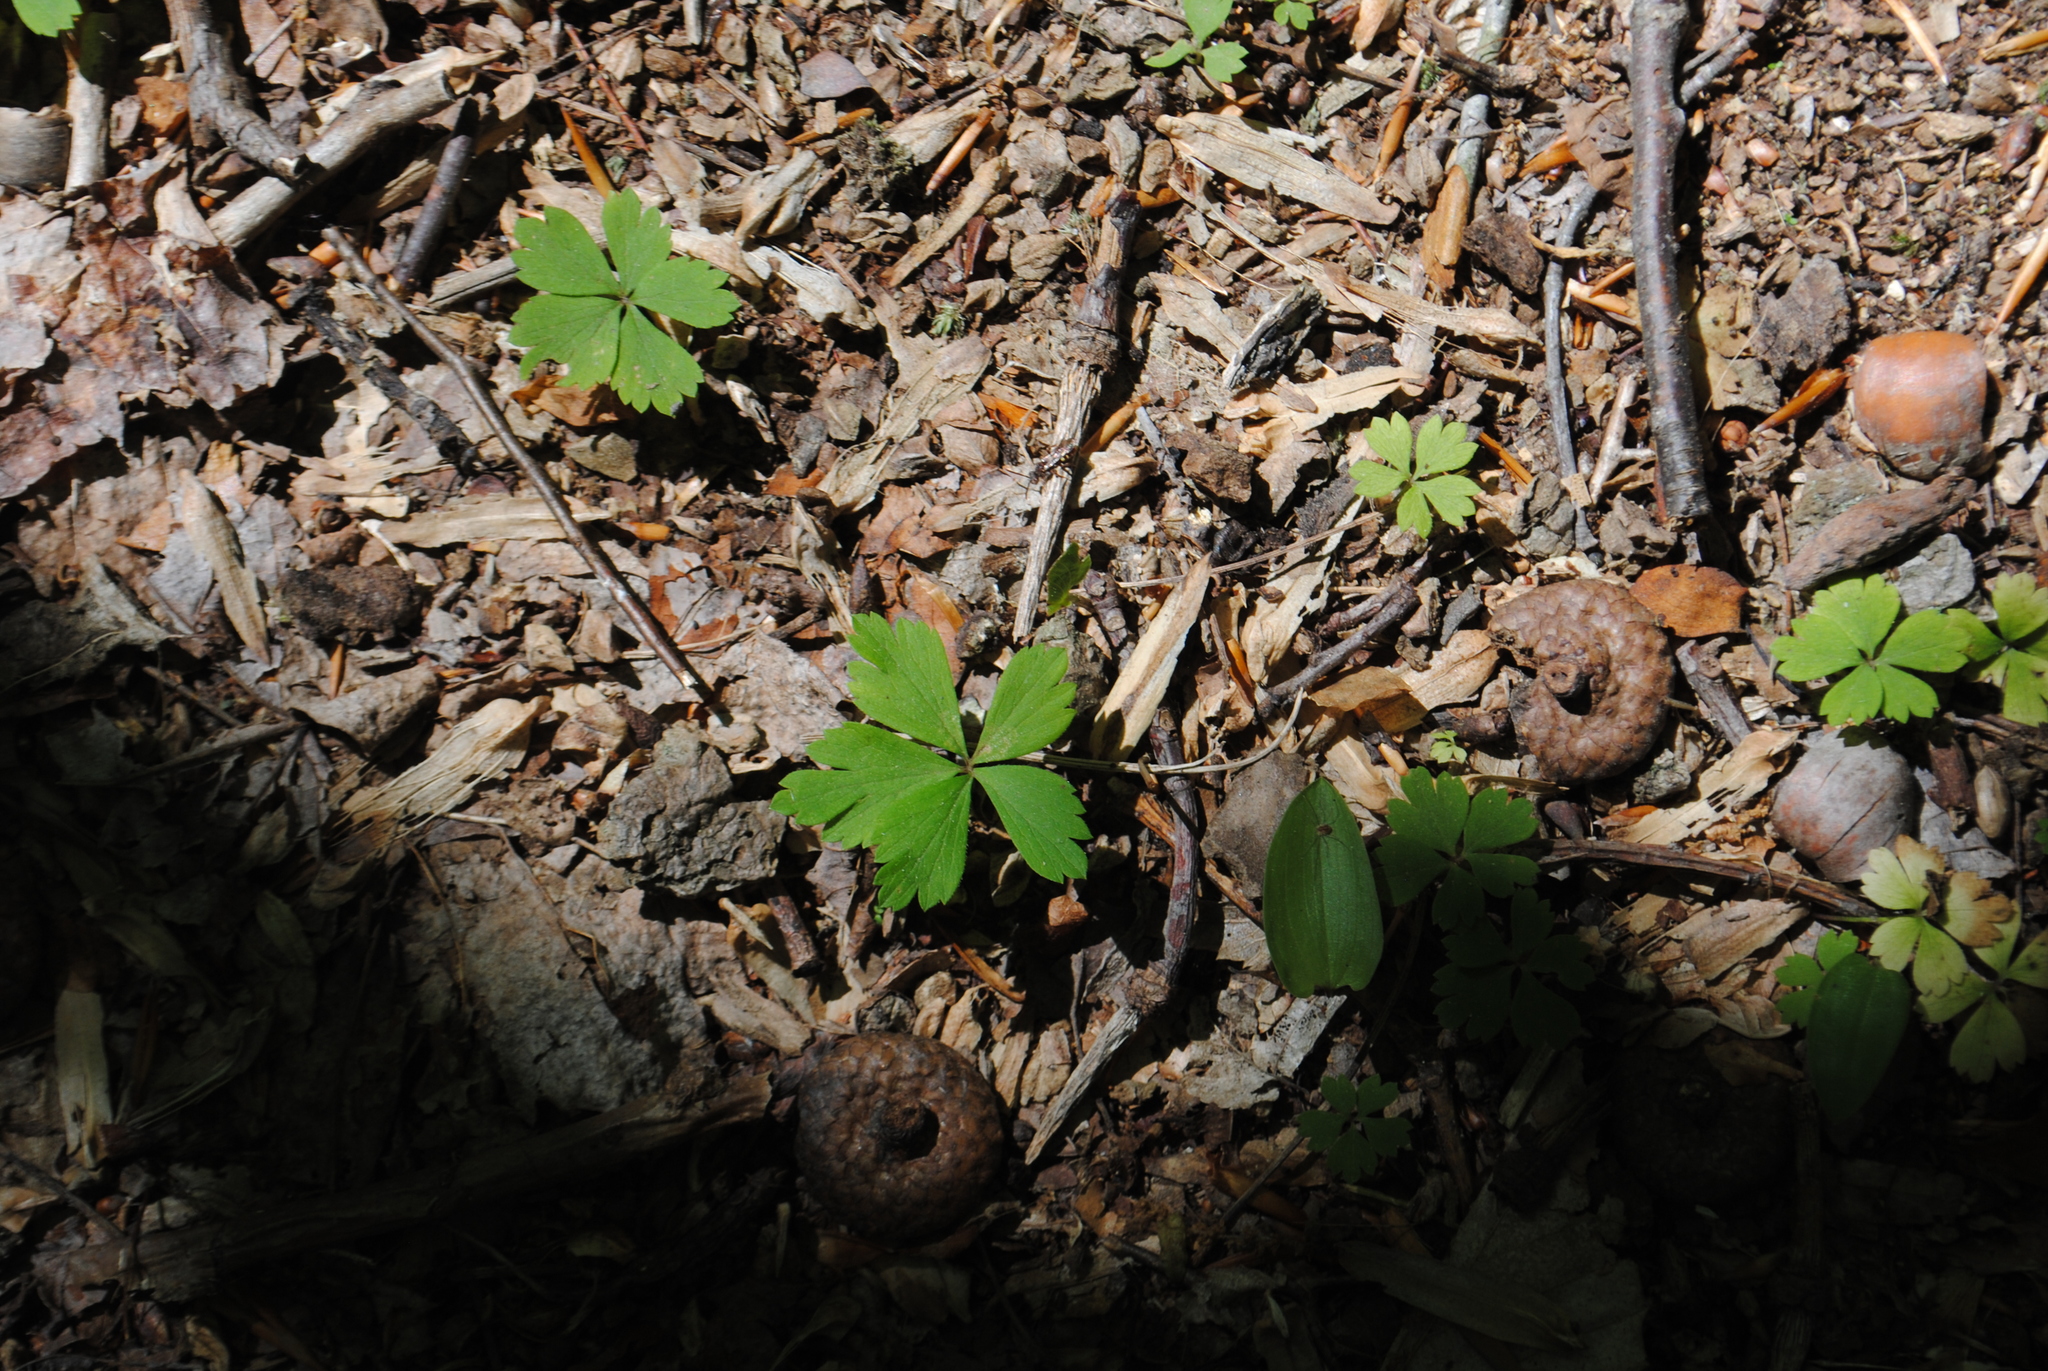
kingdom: Plantae
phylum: Tracheophyta
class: Magnoliopsida
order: Ranunculales
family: Ranunculaceae
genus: Anemone
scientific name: Anemone quinquefolia
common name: Wood anemone
